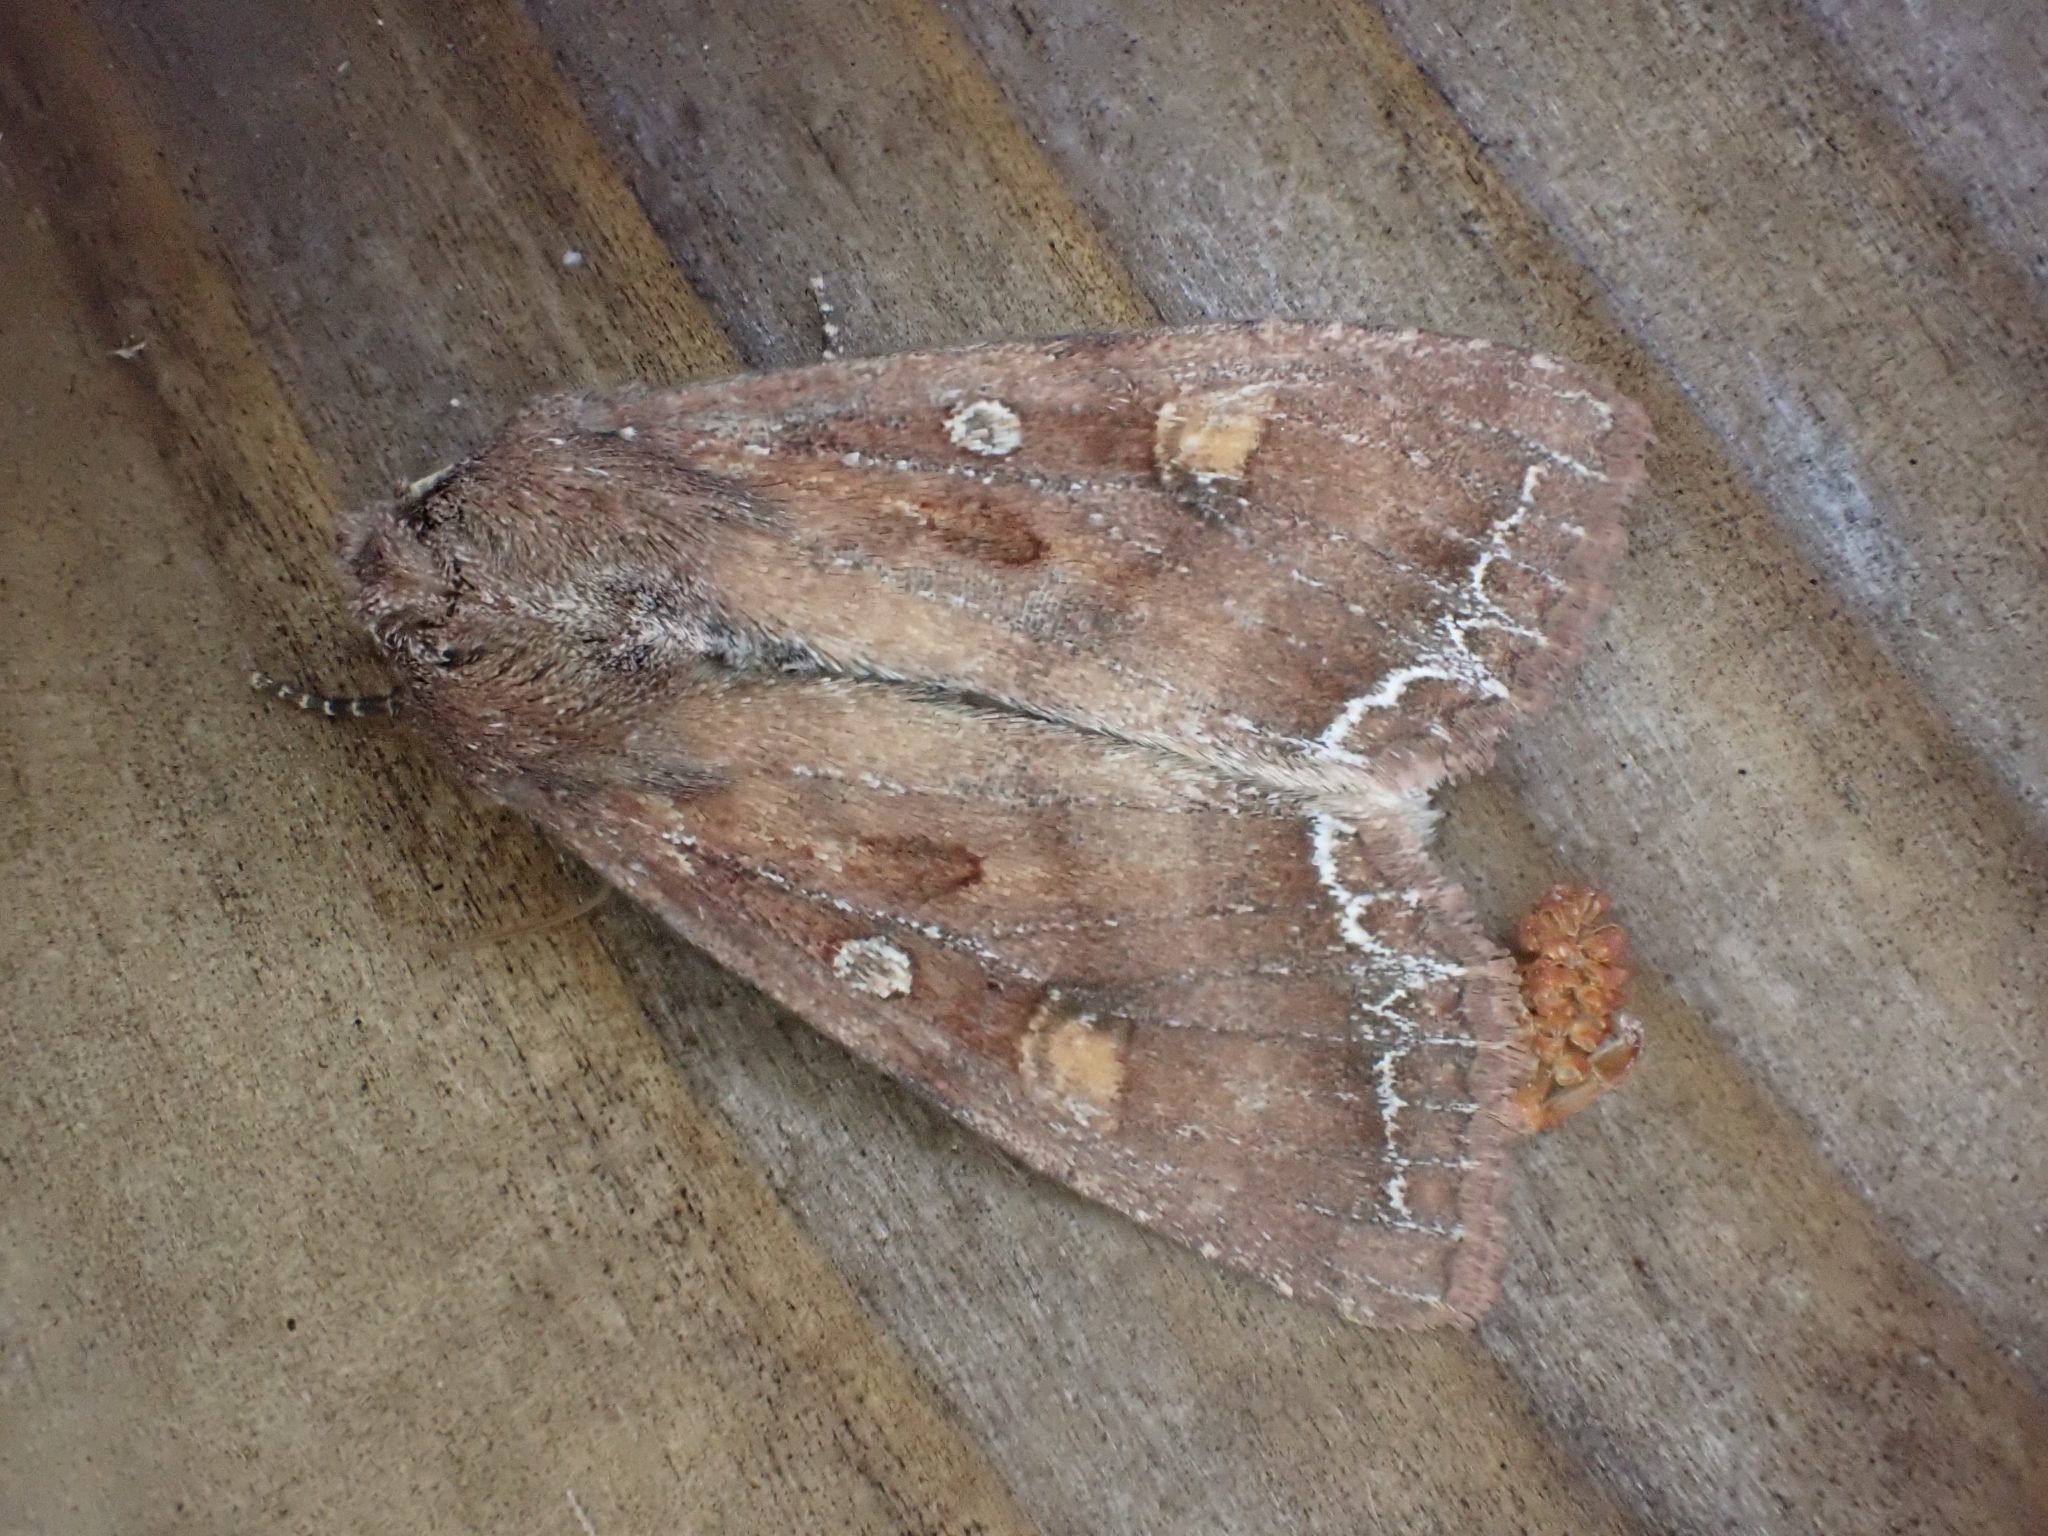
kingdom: Animalia
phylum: Arthropoda
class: Insecta
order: Lepidoptera
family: Noctuidae
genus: Lacanobia
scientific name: Lacanobia oleracea
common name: Bright-line brown-eye
